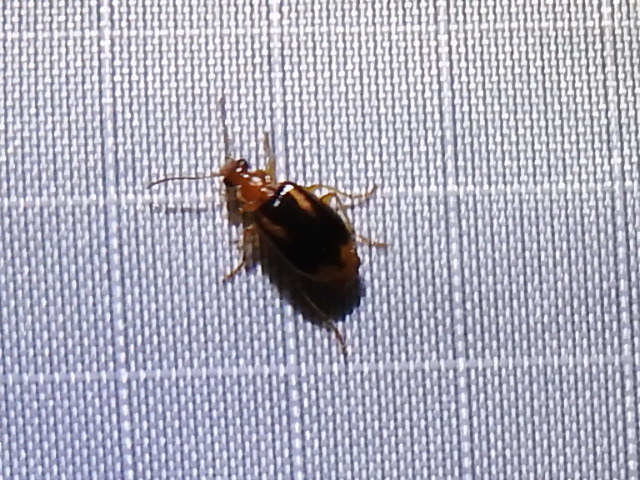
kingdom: Animalia
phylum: Arthropoda
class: Insecta
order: Coleoptera
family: Carabidae
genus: Lebia
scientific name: Lebia solea
